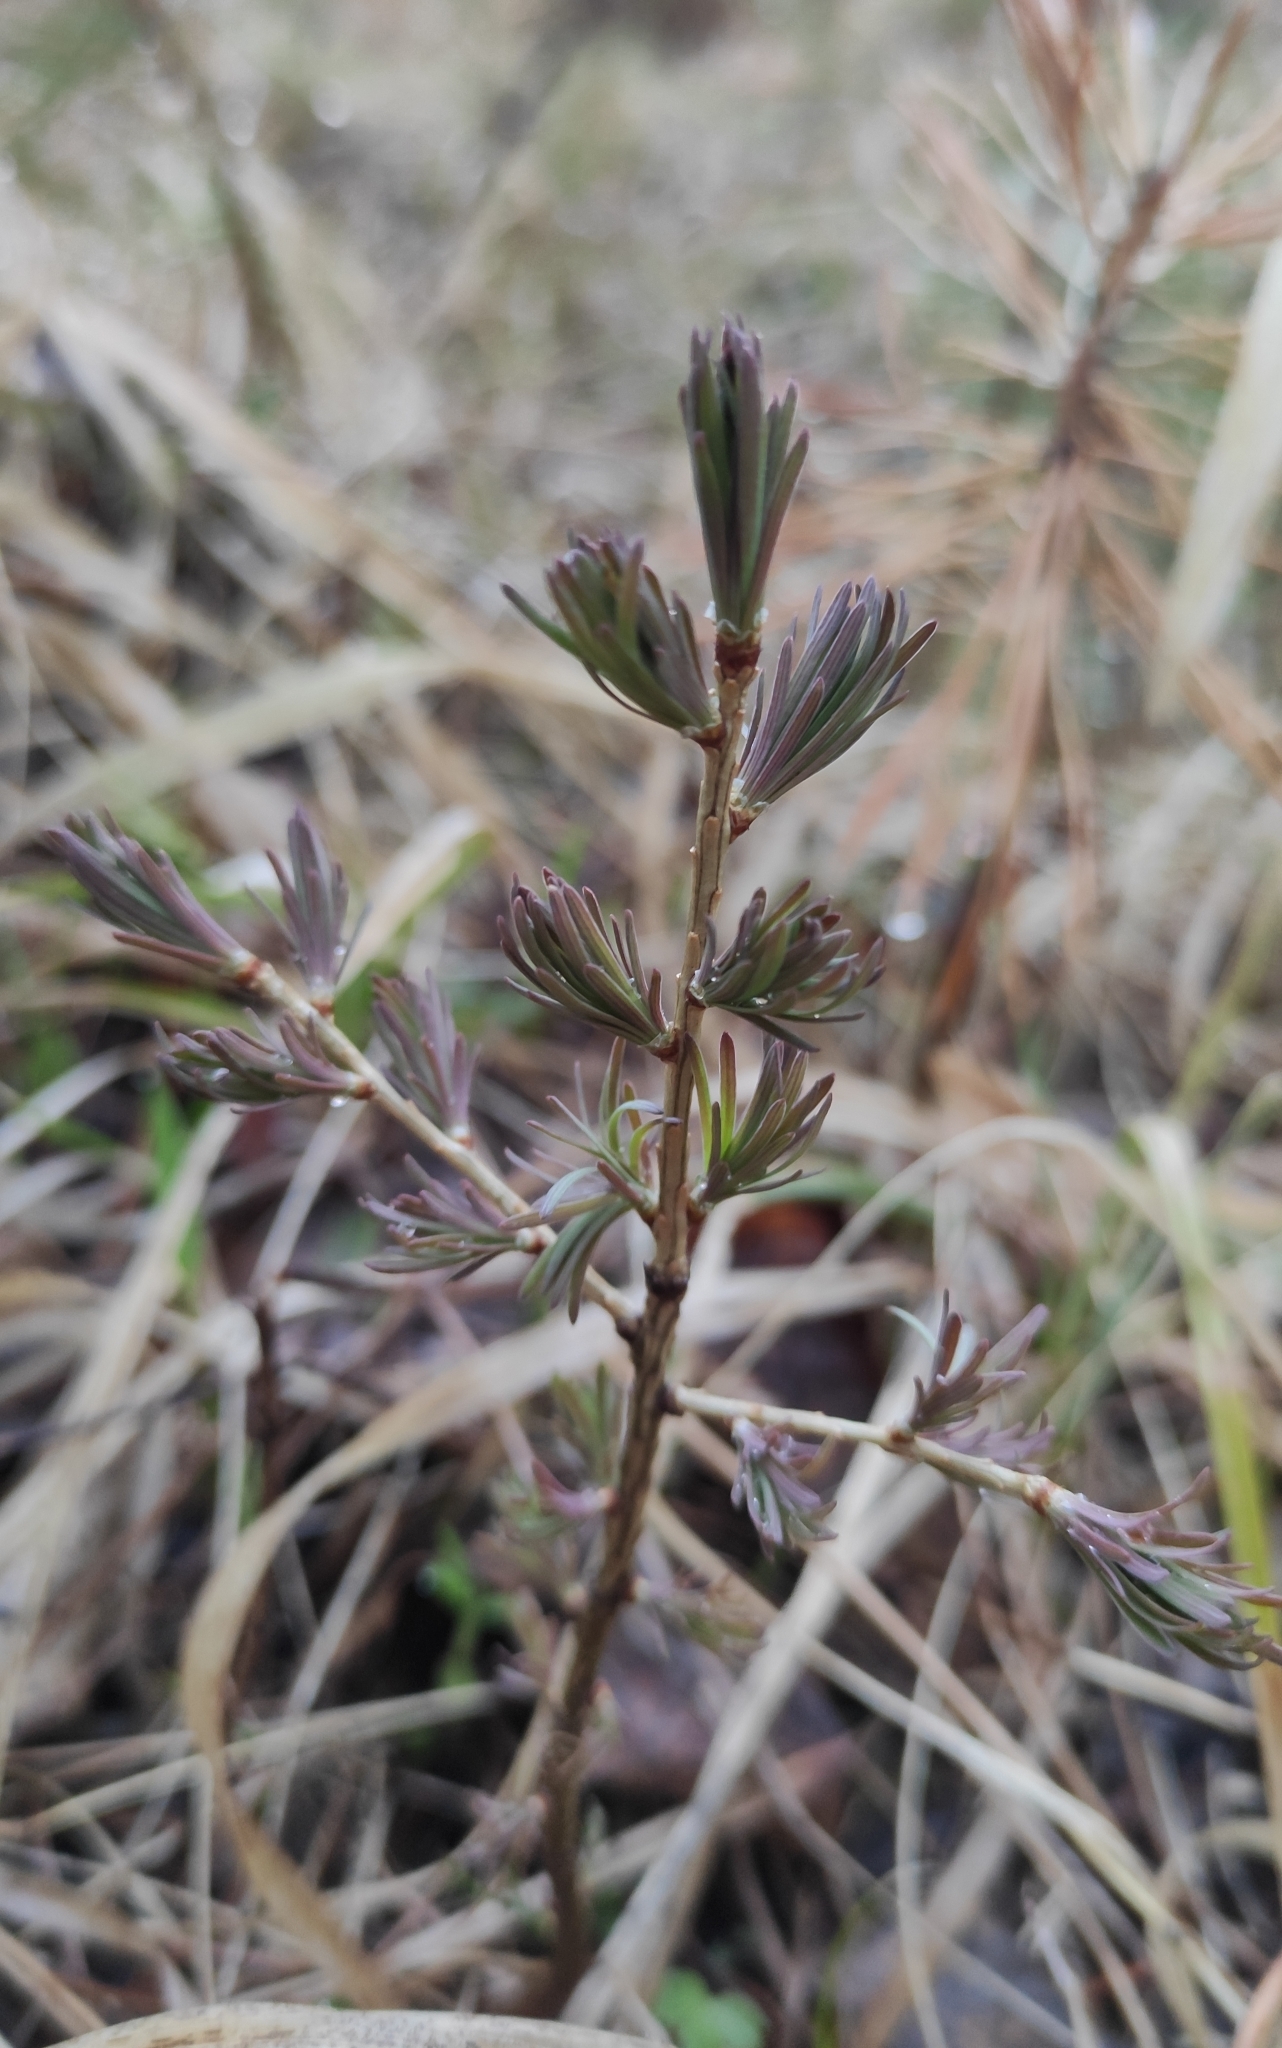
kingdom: Plantae
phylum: Tracheophyta
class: Pinopsida
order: Pinales
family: Pinaceae
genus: Larix
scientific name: Larix sibirica
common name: Siberian larch
